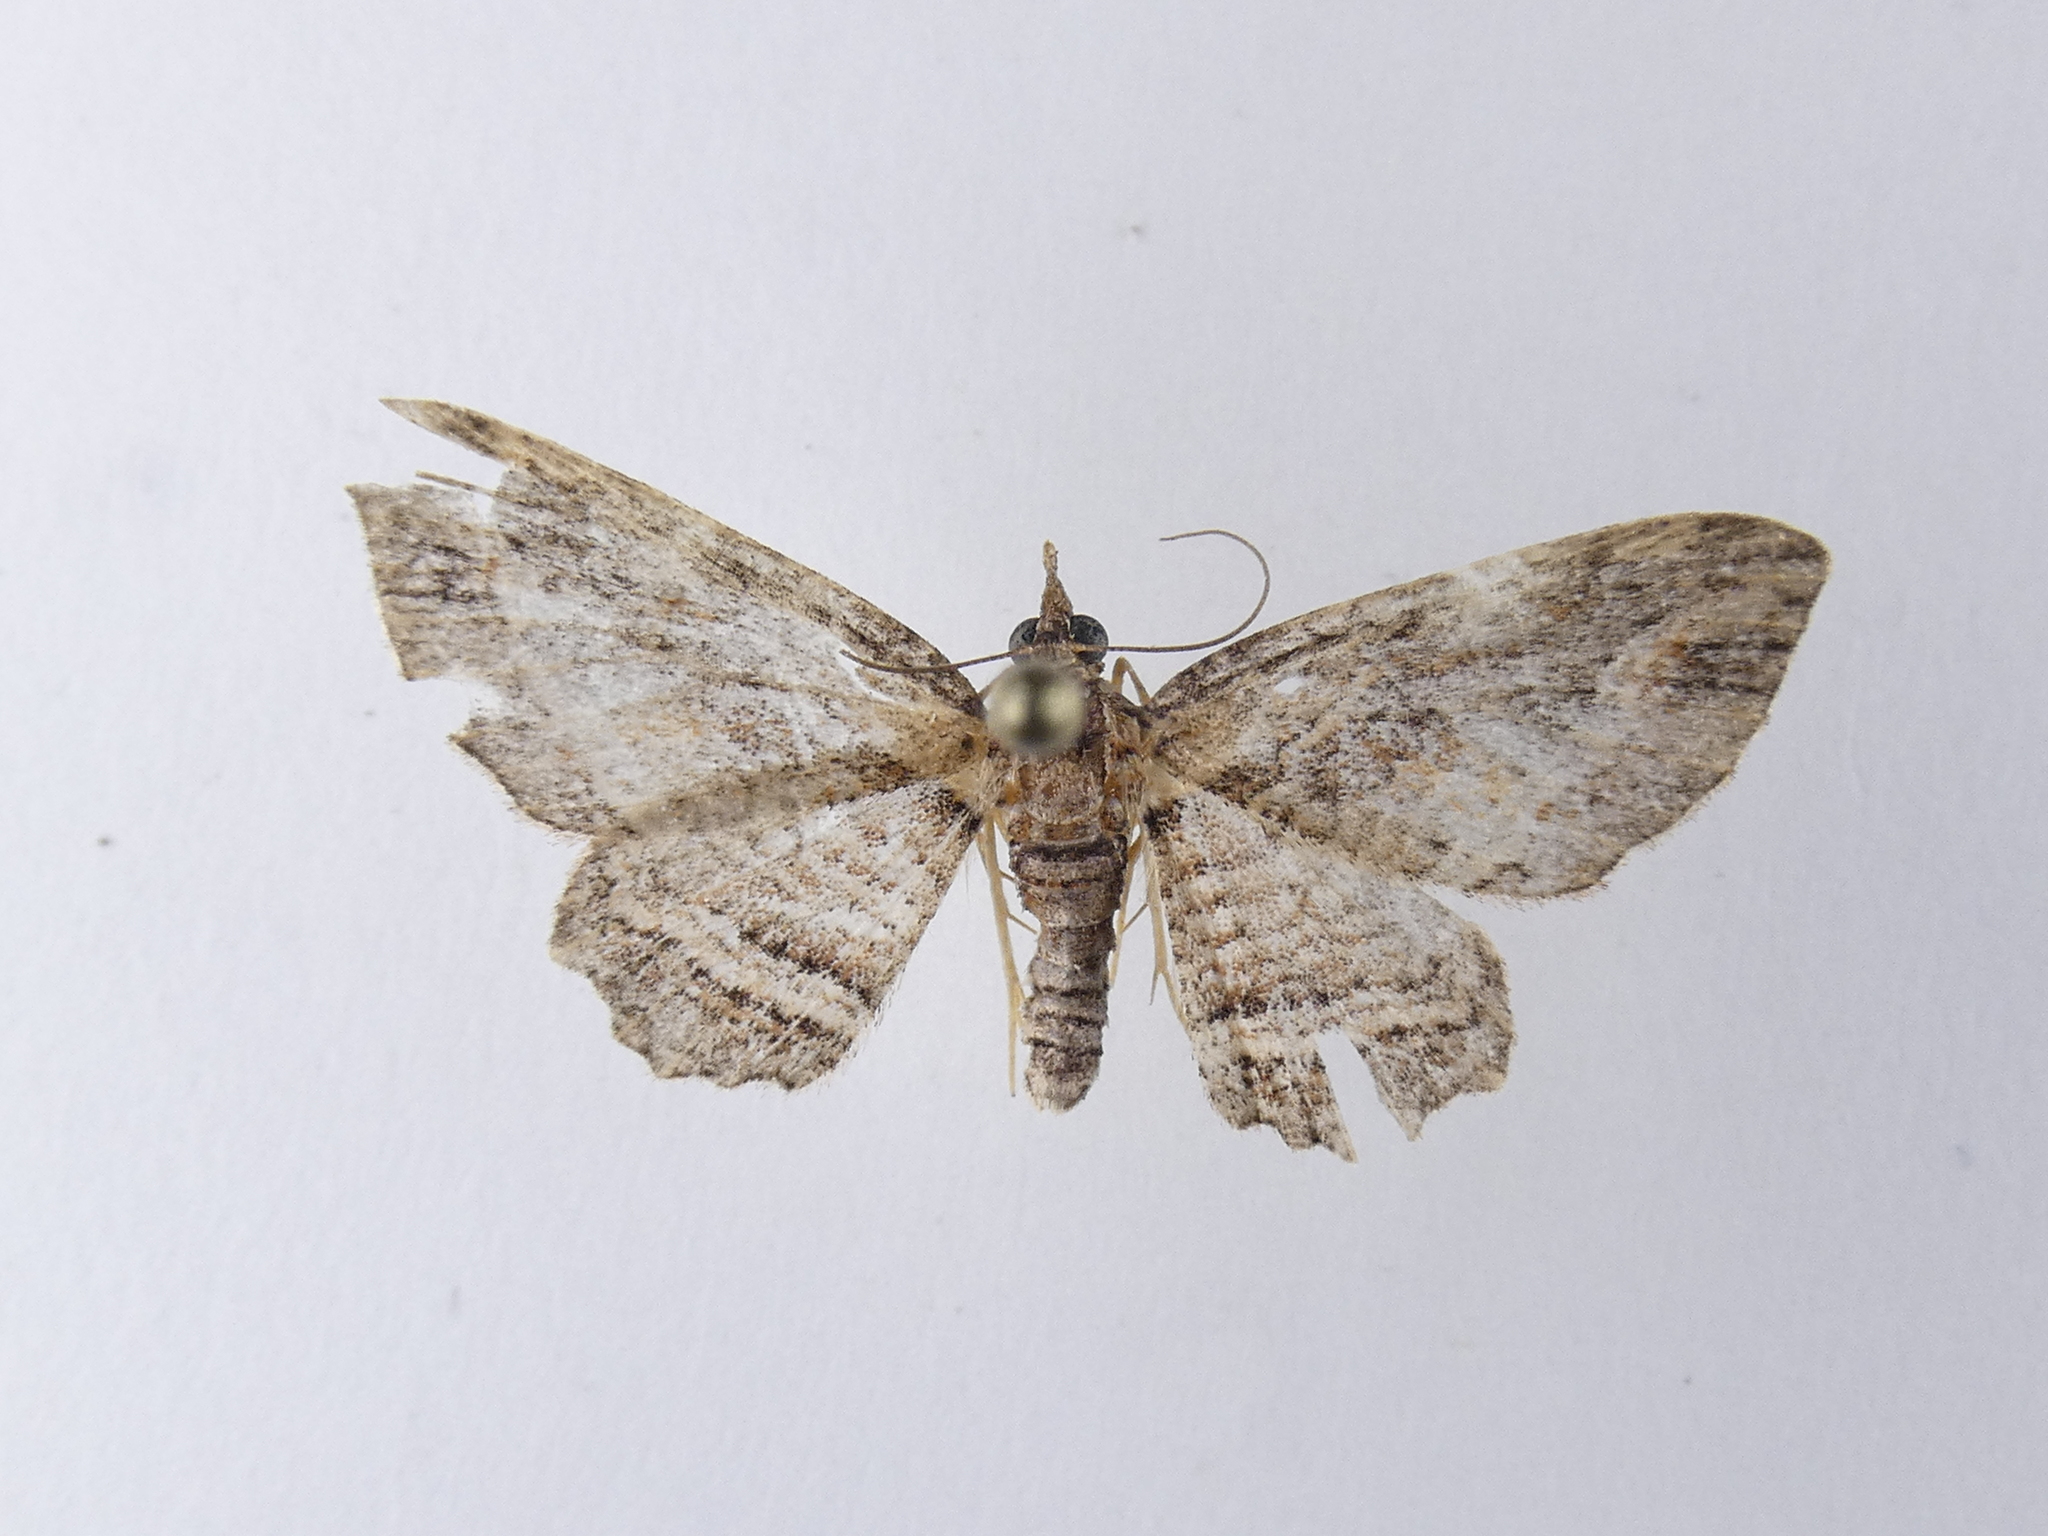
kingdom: Animalia
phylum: Arthropoda
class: Insecta
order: Lepidoptera
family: Geometridae
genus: Chloroclystis
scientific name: Chloroclystis filata
